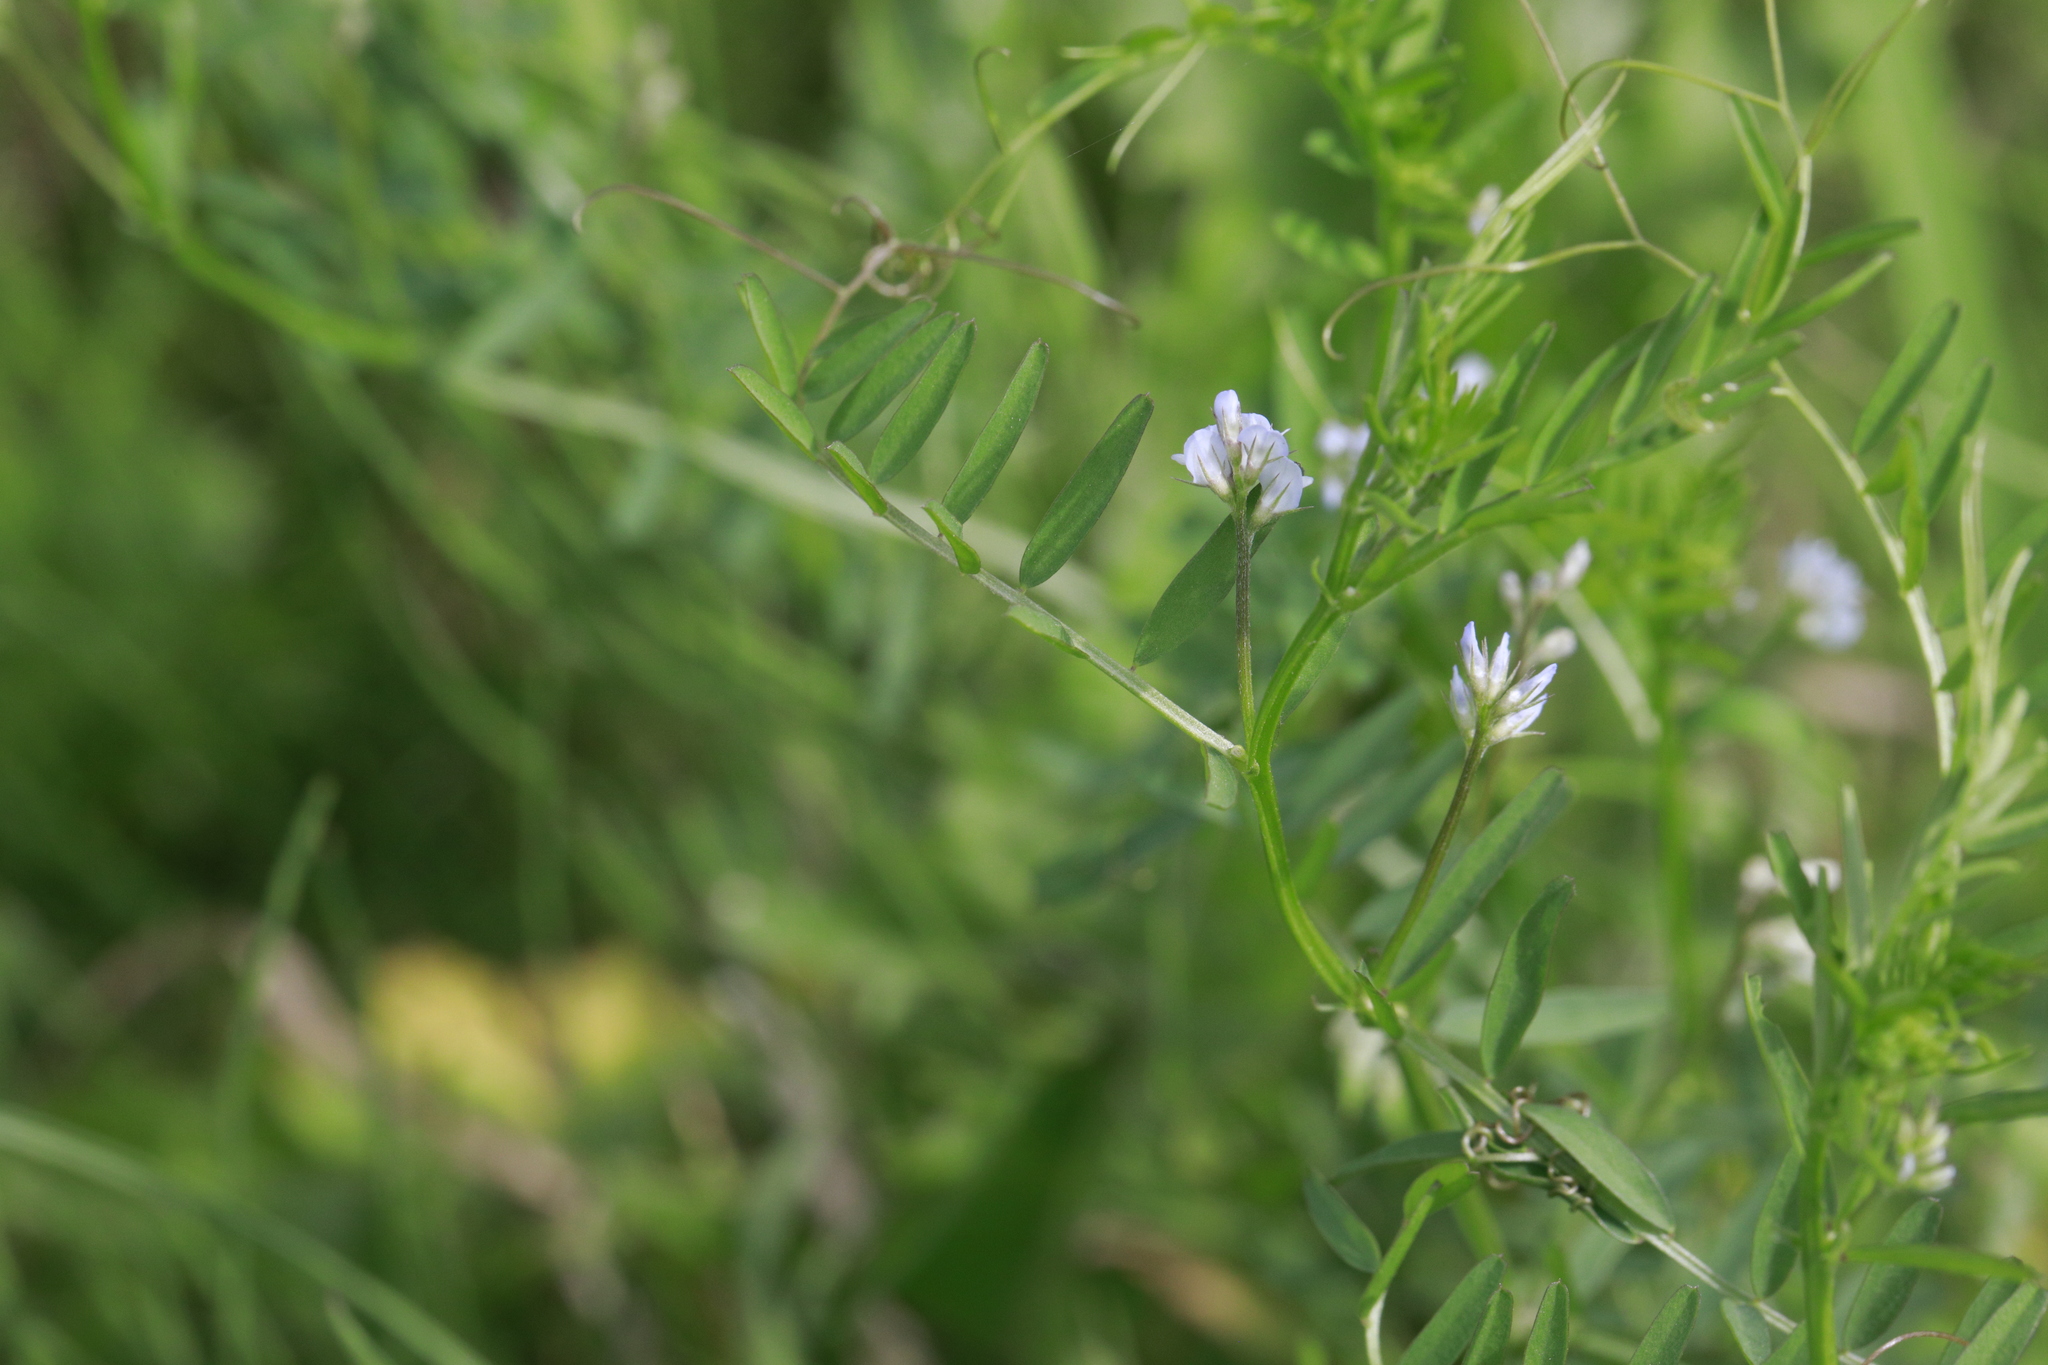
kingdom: Plantae
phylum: Tracheophyta
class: Magnoliopsida
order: Fabales
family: Fabaceae
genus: Vicia
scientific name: Vicia hirsuta
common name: Tiny vetch
